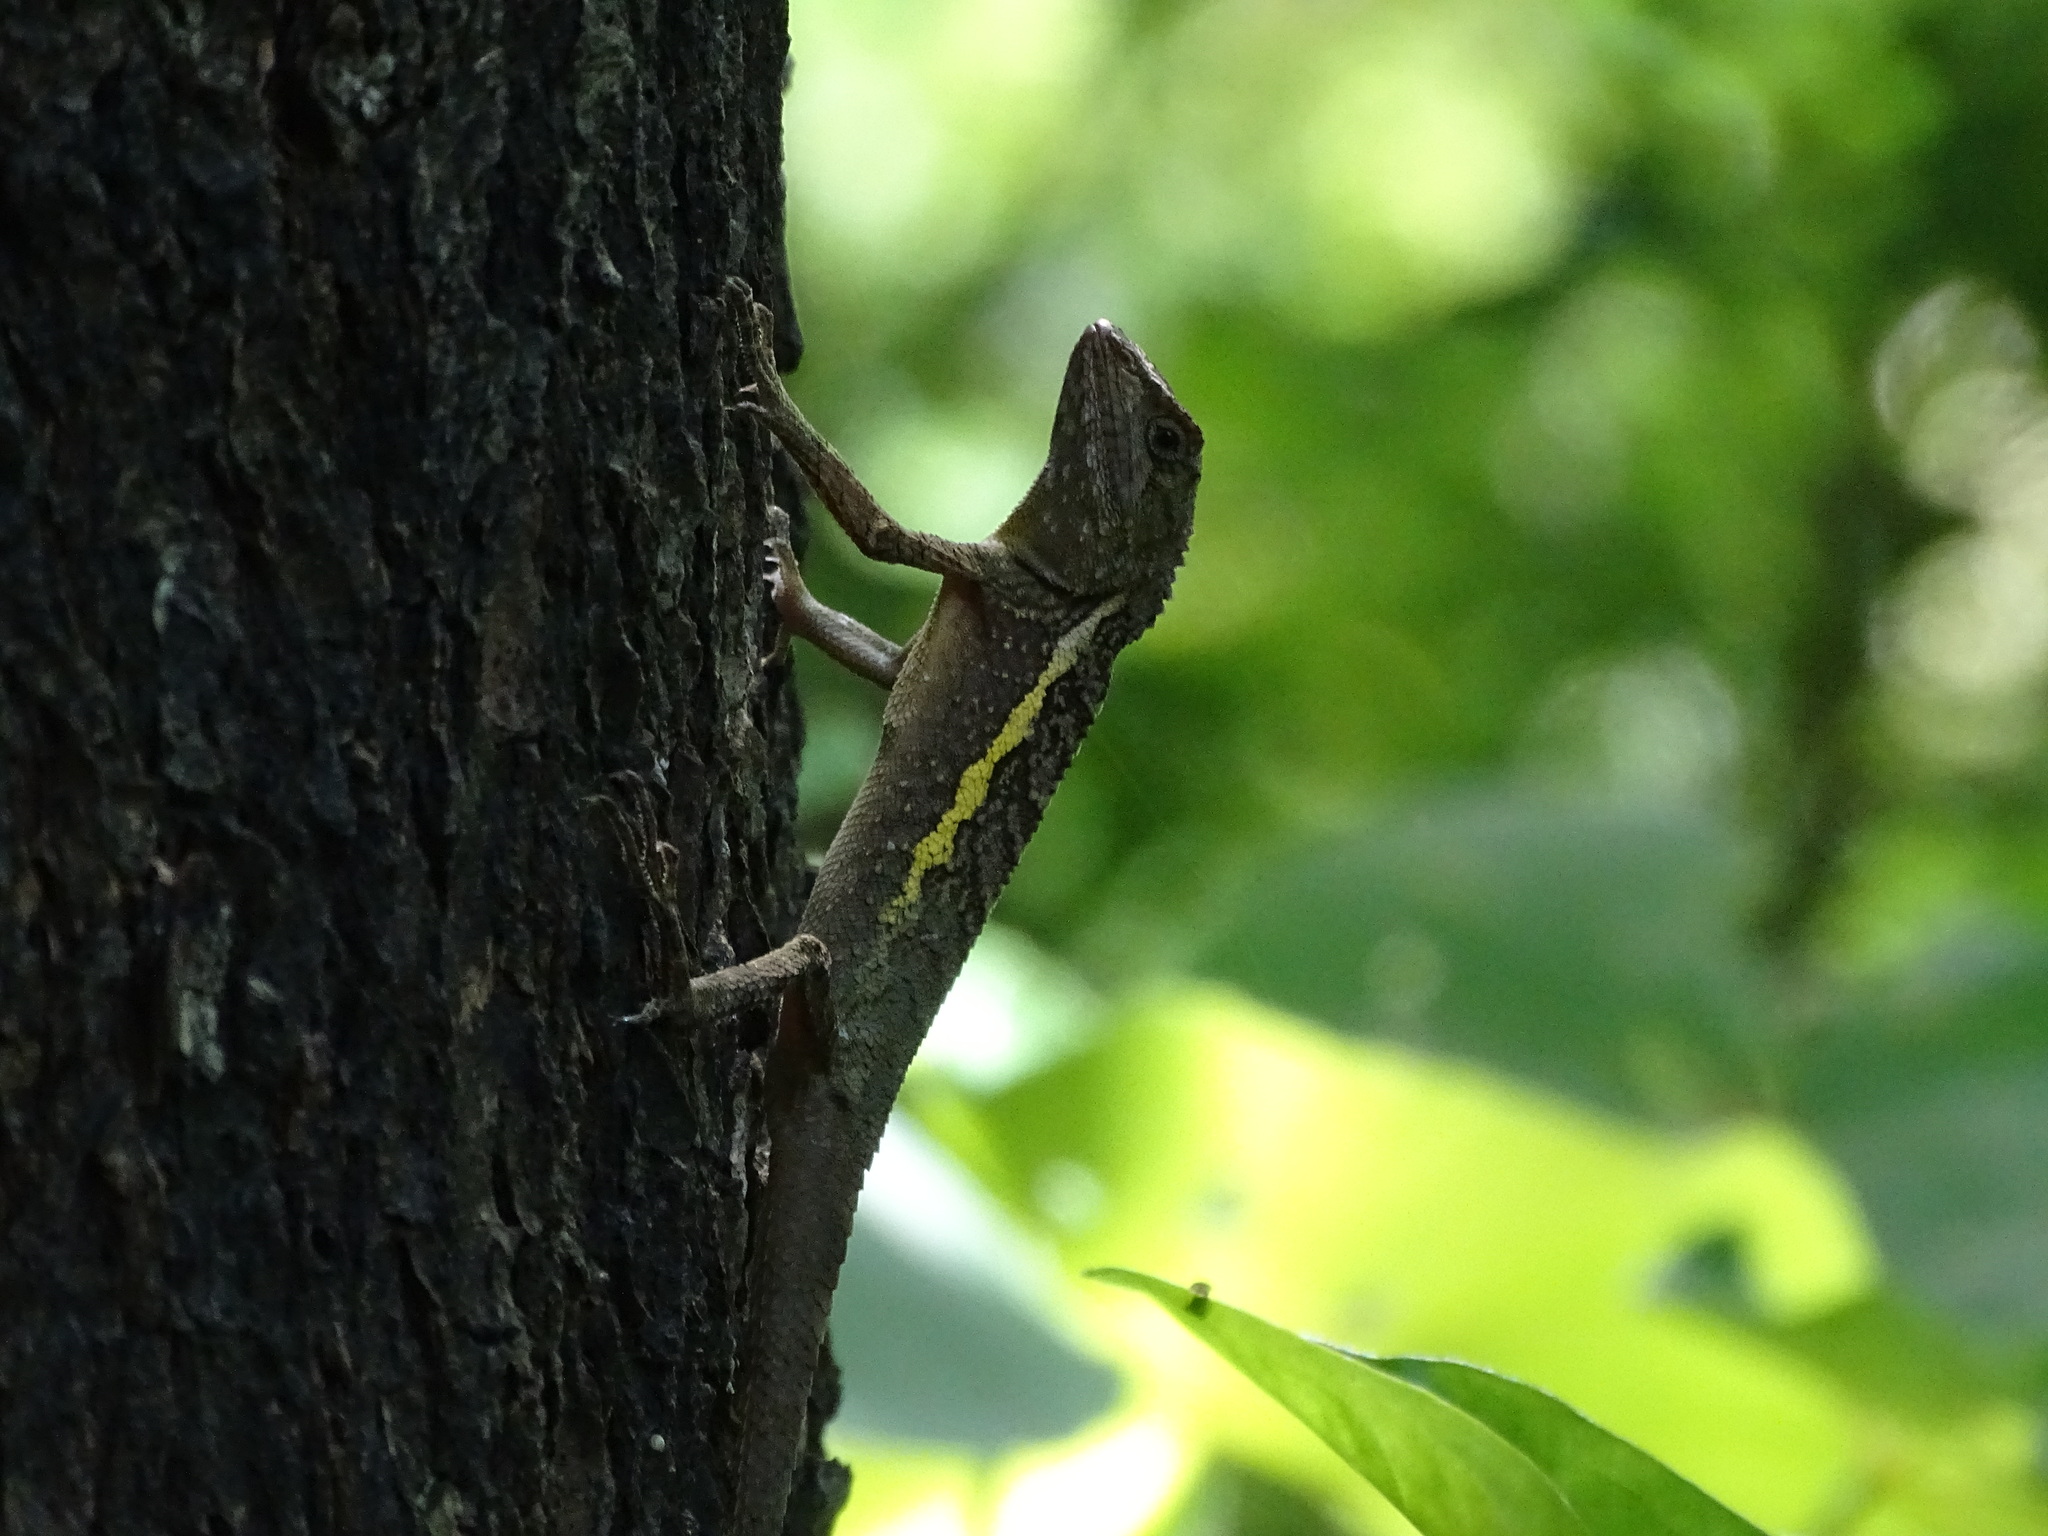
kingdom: Animalia
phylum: Chordata
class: Squamata
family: Agamidae
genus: Diploderma
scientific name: Diploderma swinhonis
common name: Taiwan japalure
